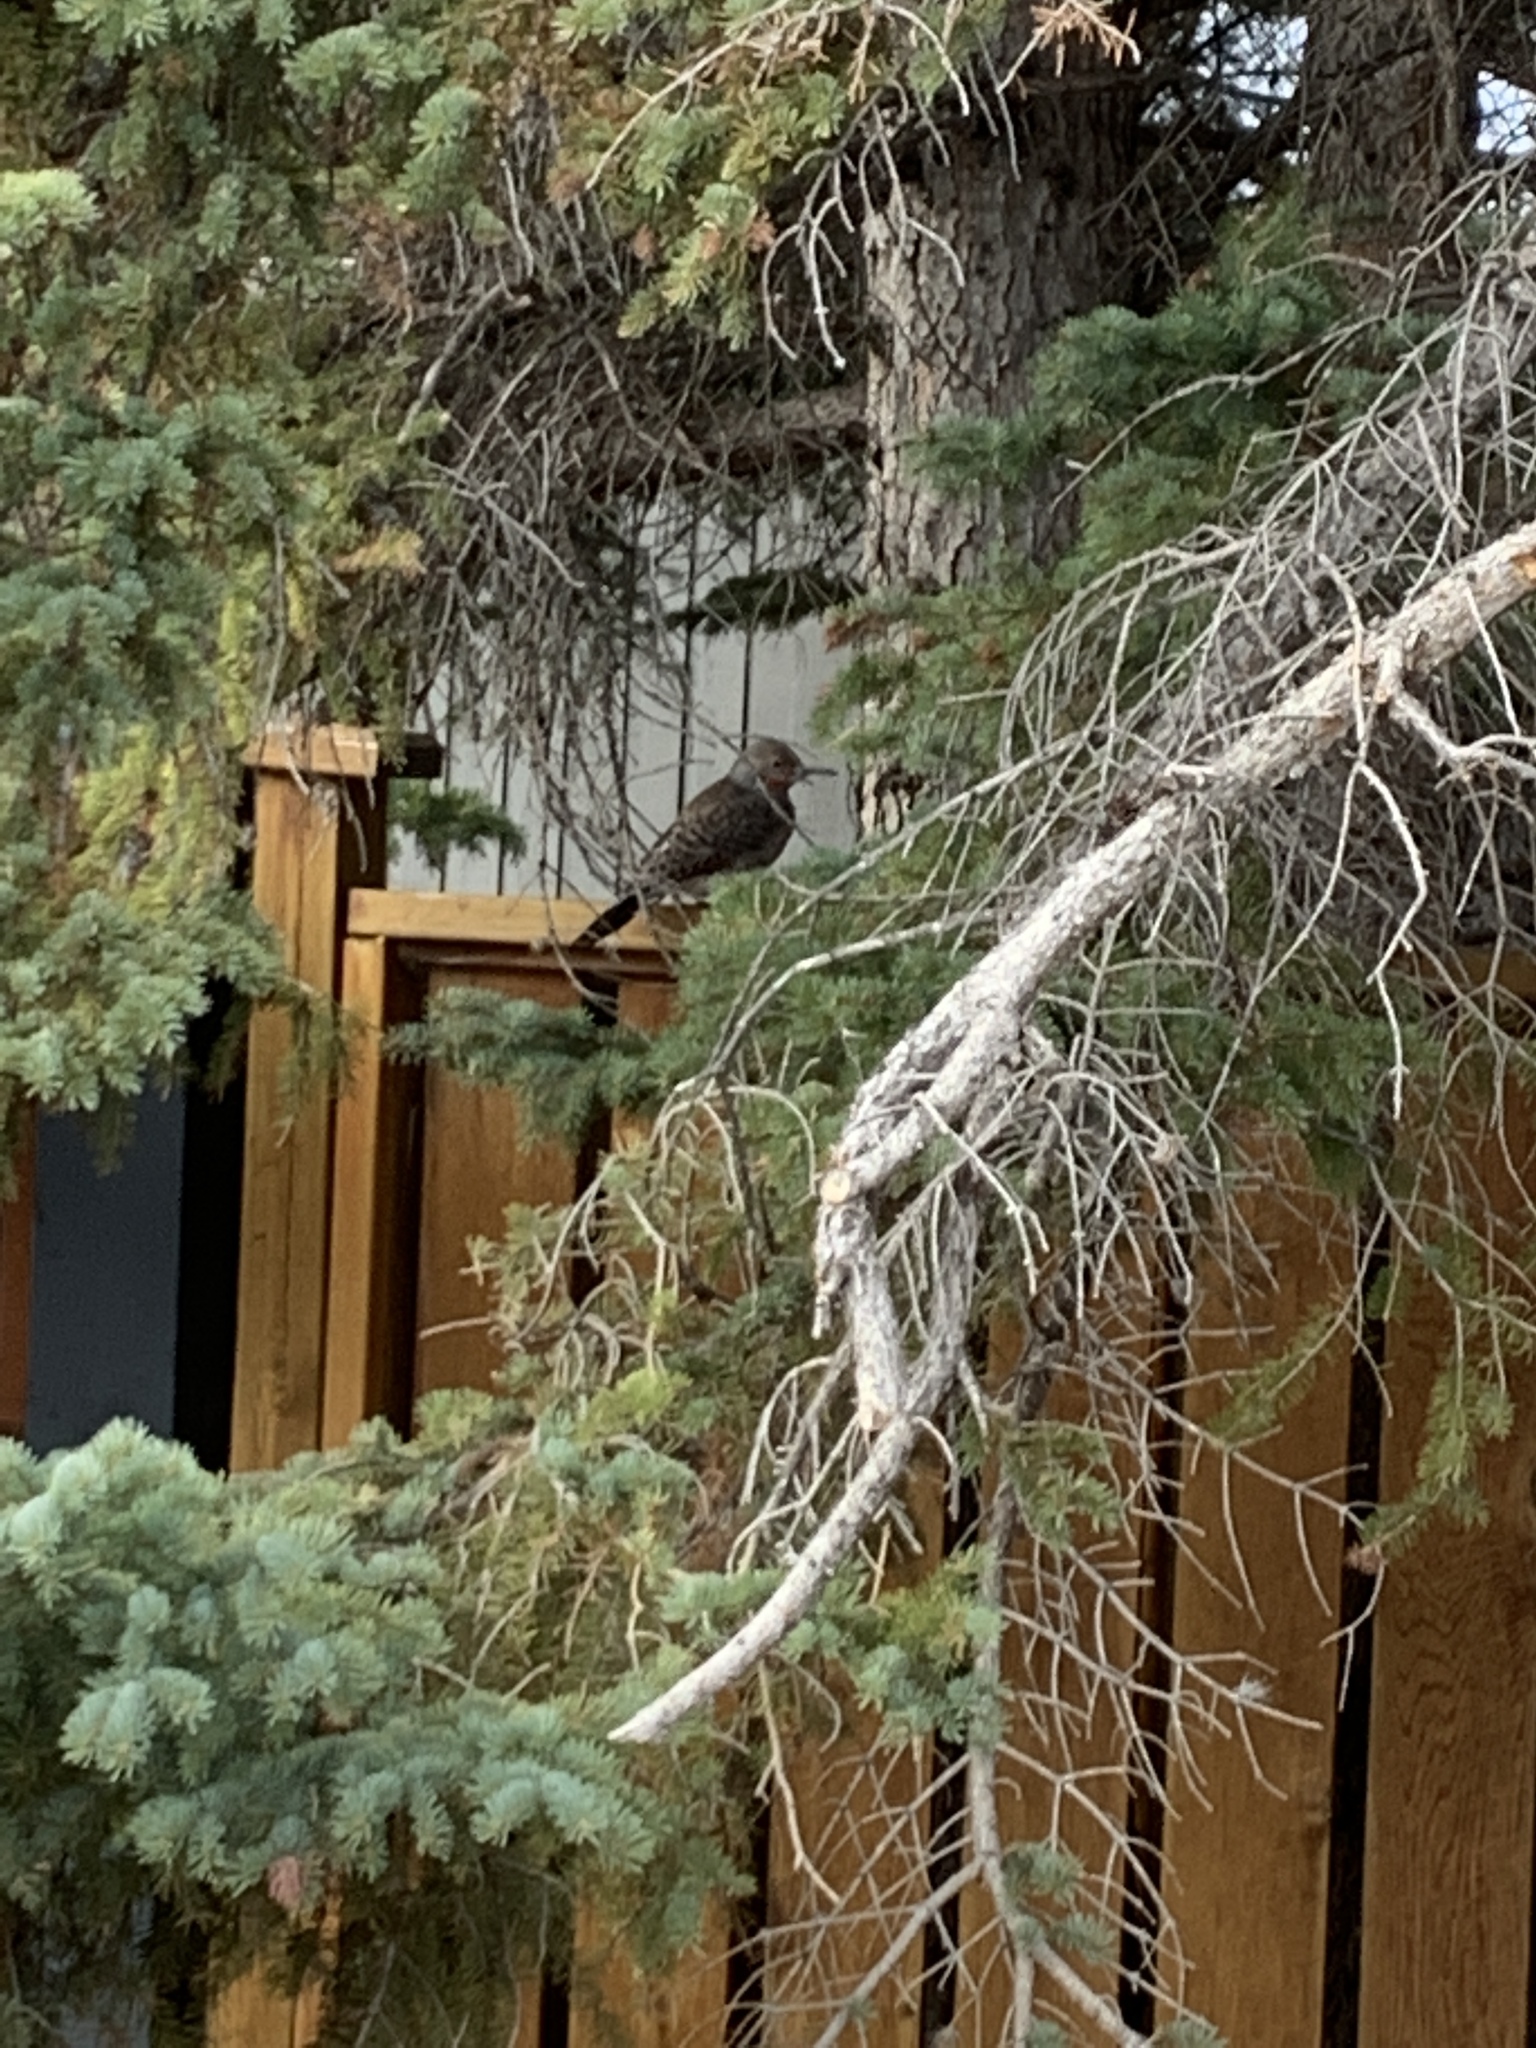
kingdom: Animalia
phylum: Chordata
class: Aves
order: Piciformes
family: Picidae
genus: Colaptes
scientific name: Colaptes auratus
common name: Northern flicker
